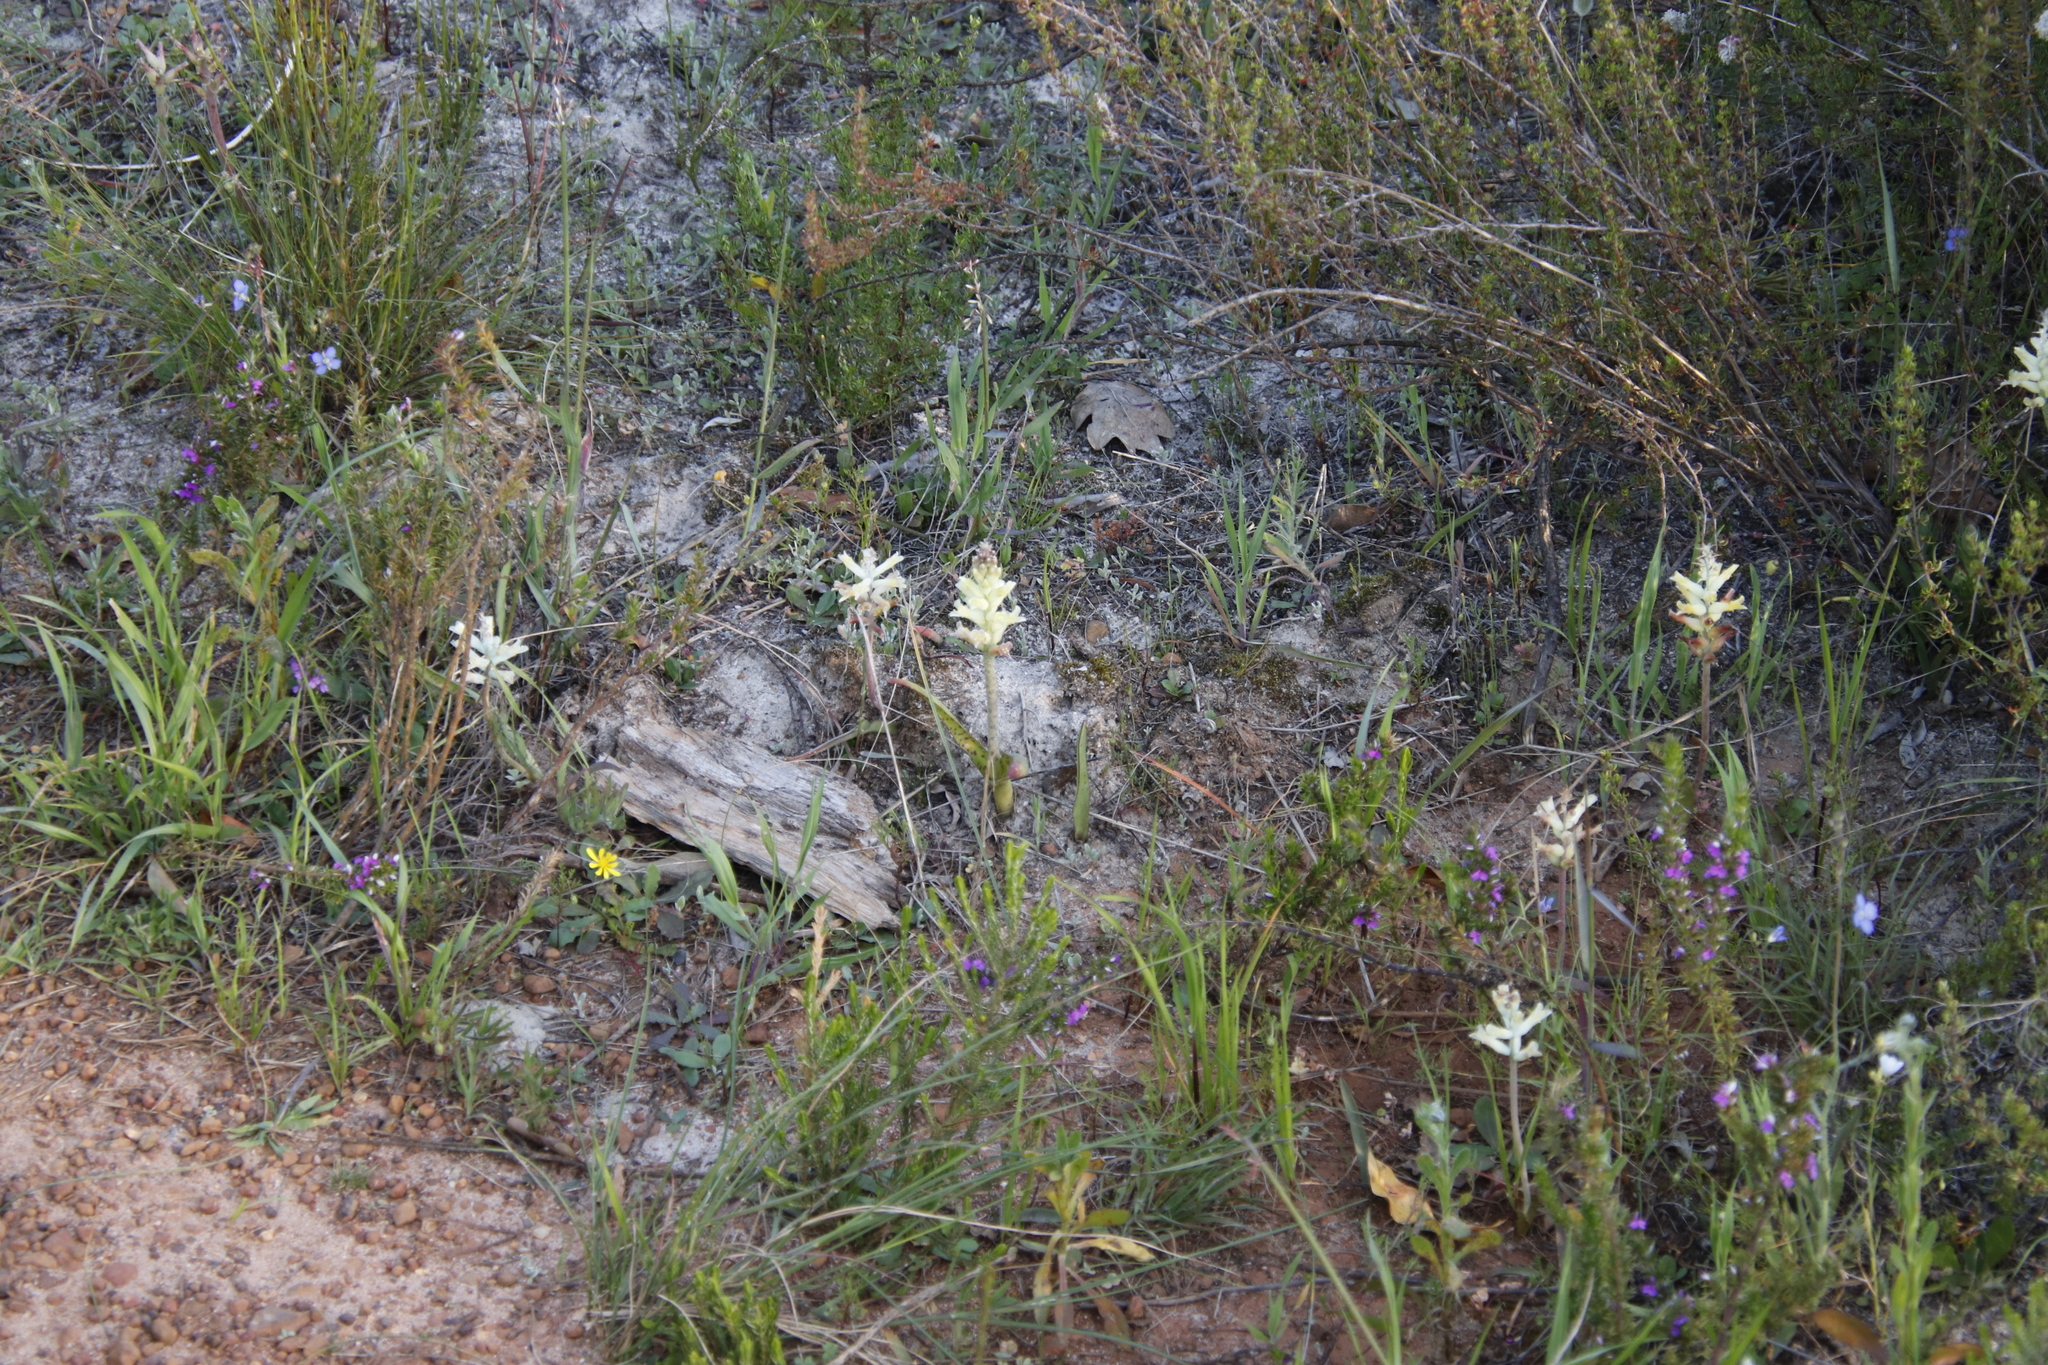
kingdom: Plantae
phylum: Tracheophyta
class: Liliopsida
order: Asparagales
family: Asparagaceae
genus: Lachenalia
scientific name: Lachenalia orchioides
